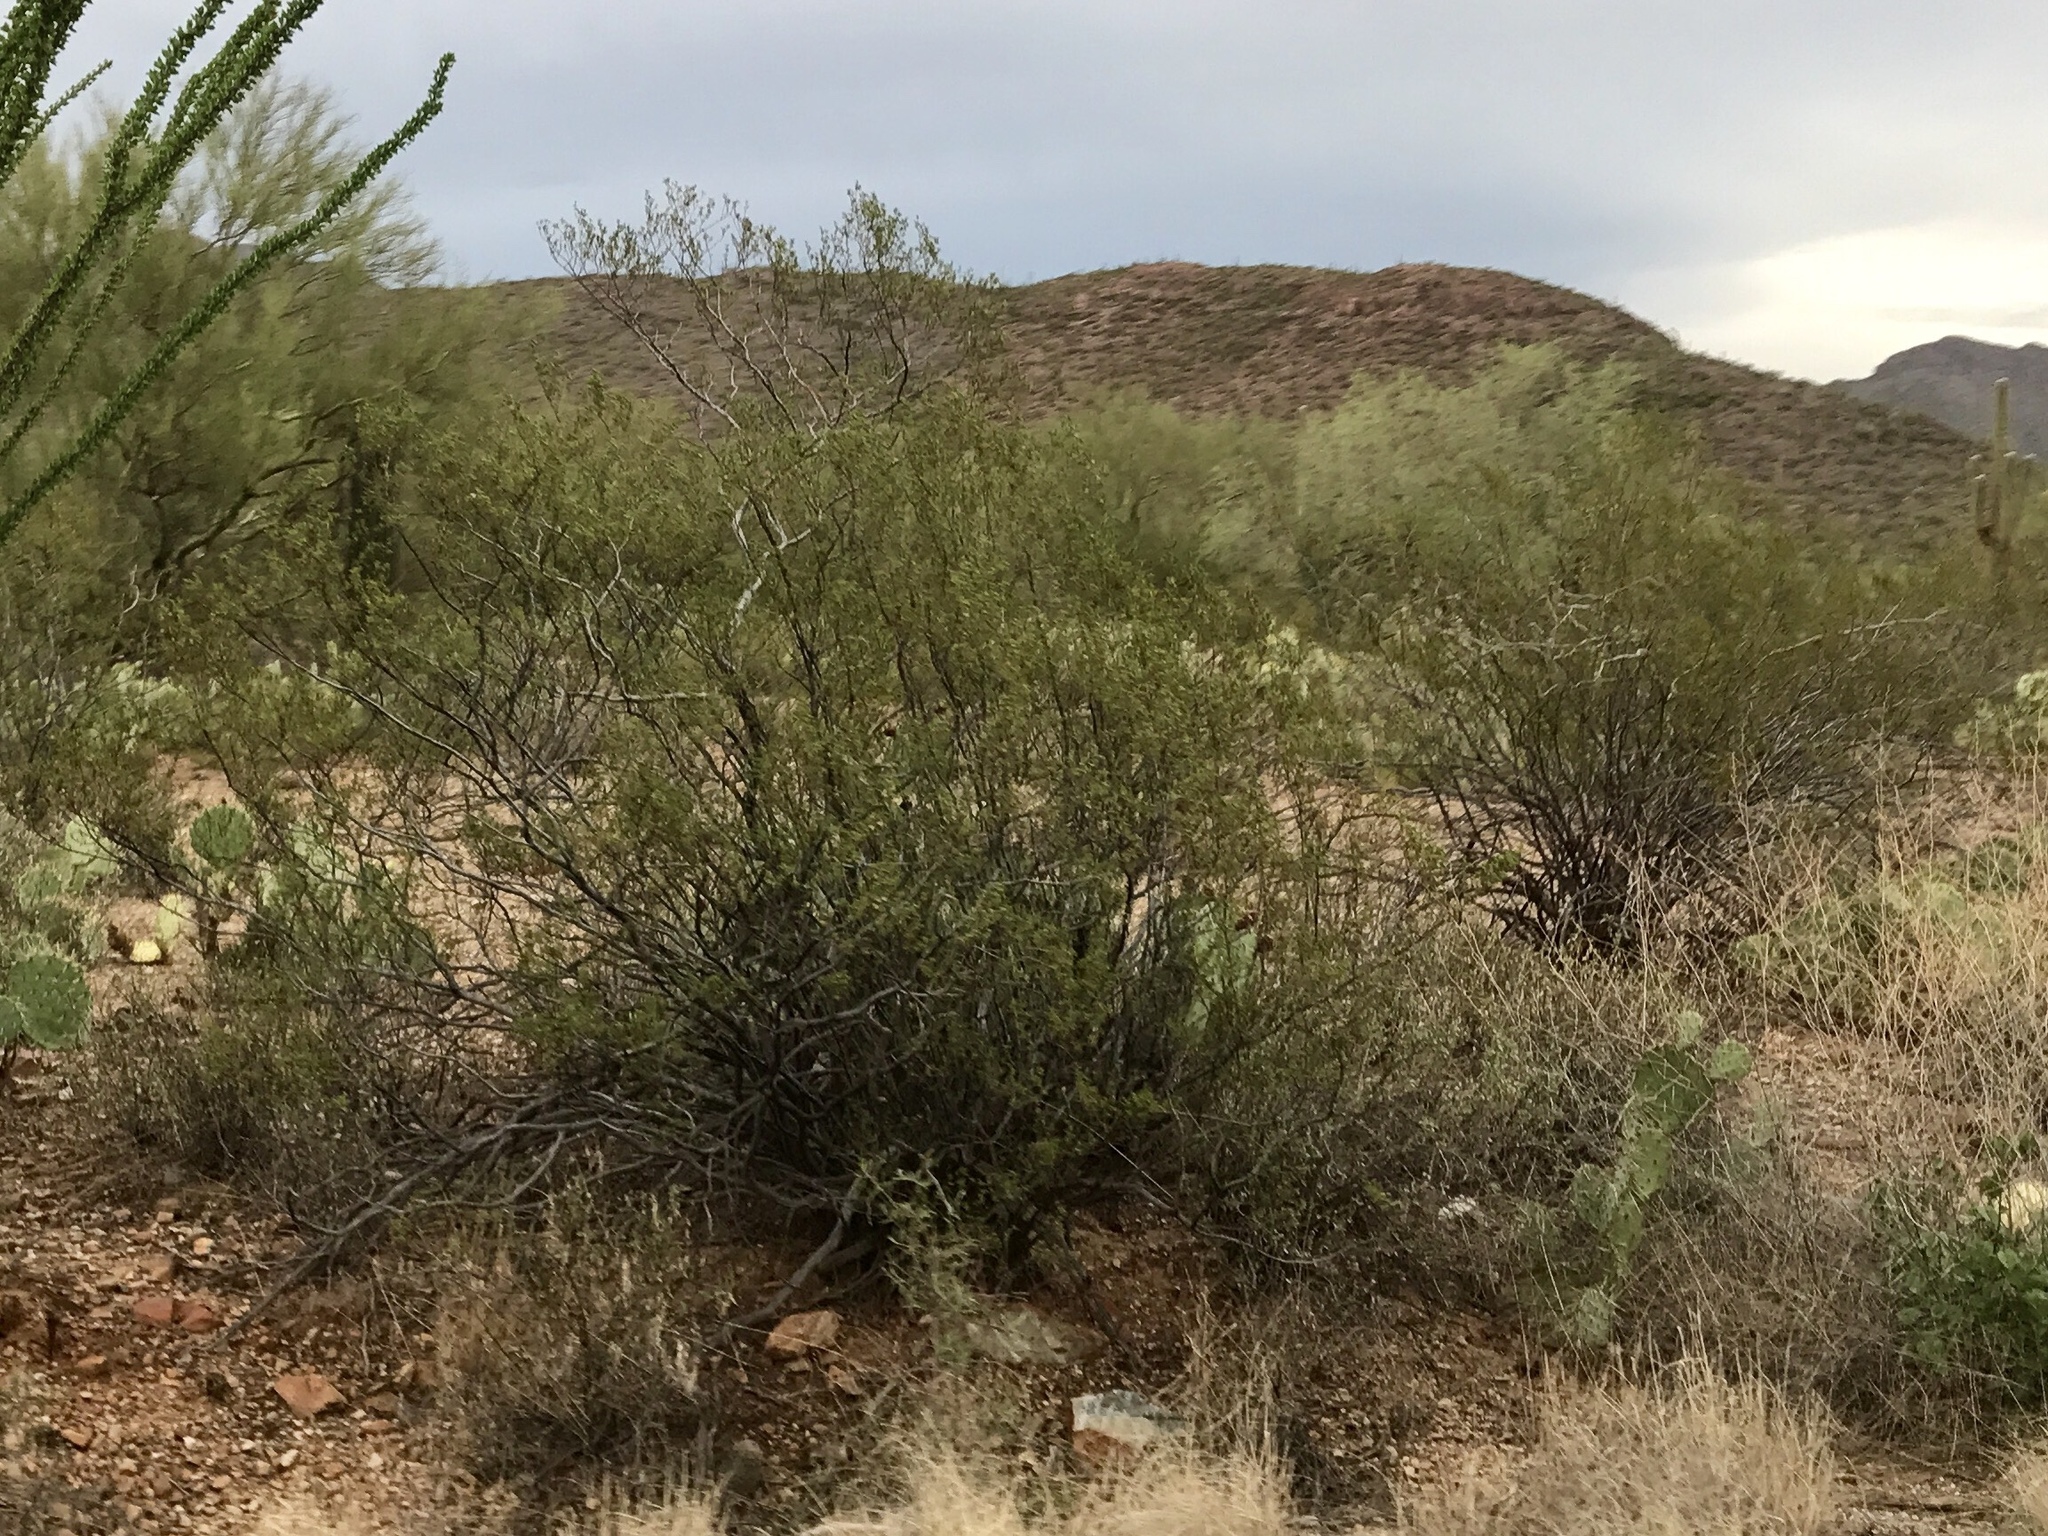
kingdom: Plantae
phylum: Tracheophyta
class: Magnoliopsida
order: Zygophyllales
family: Zygophyllaceae
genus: Larrea
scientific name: Larrea tridentata
